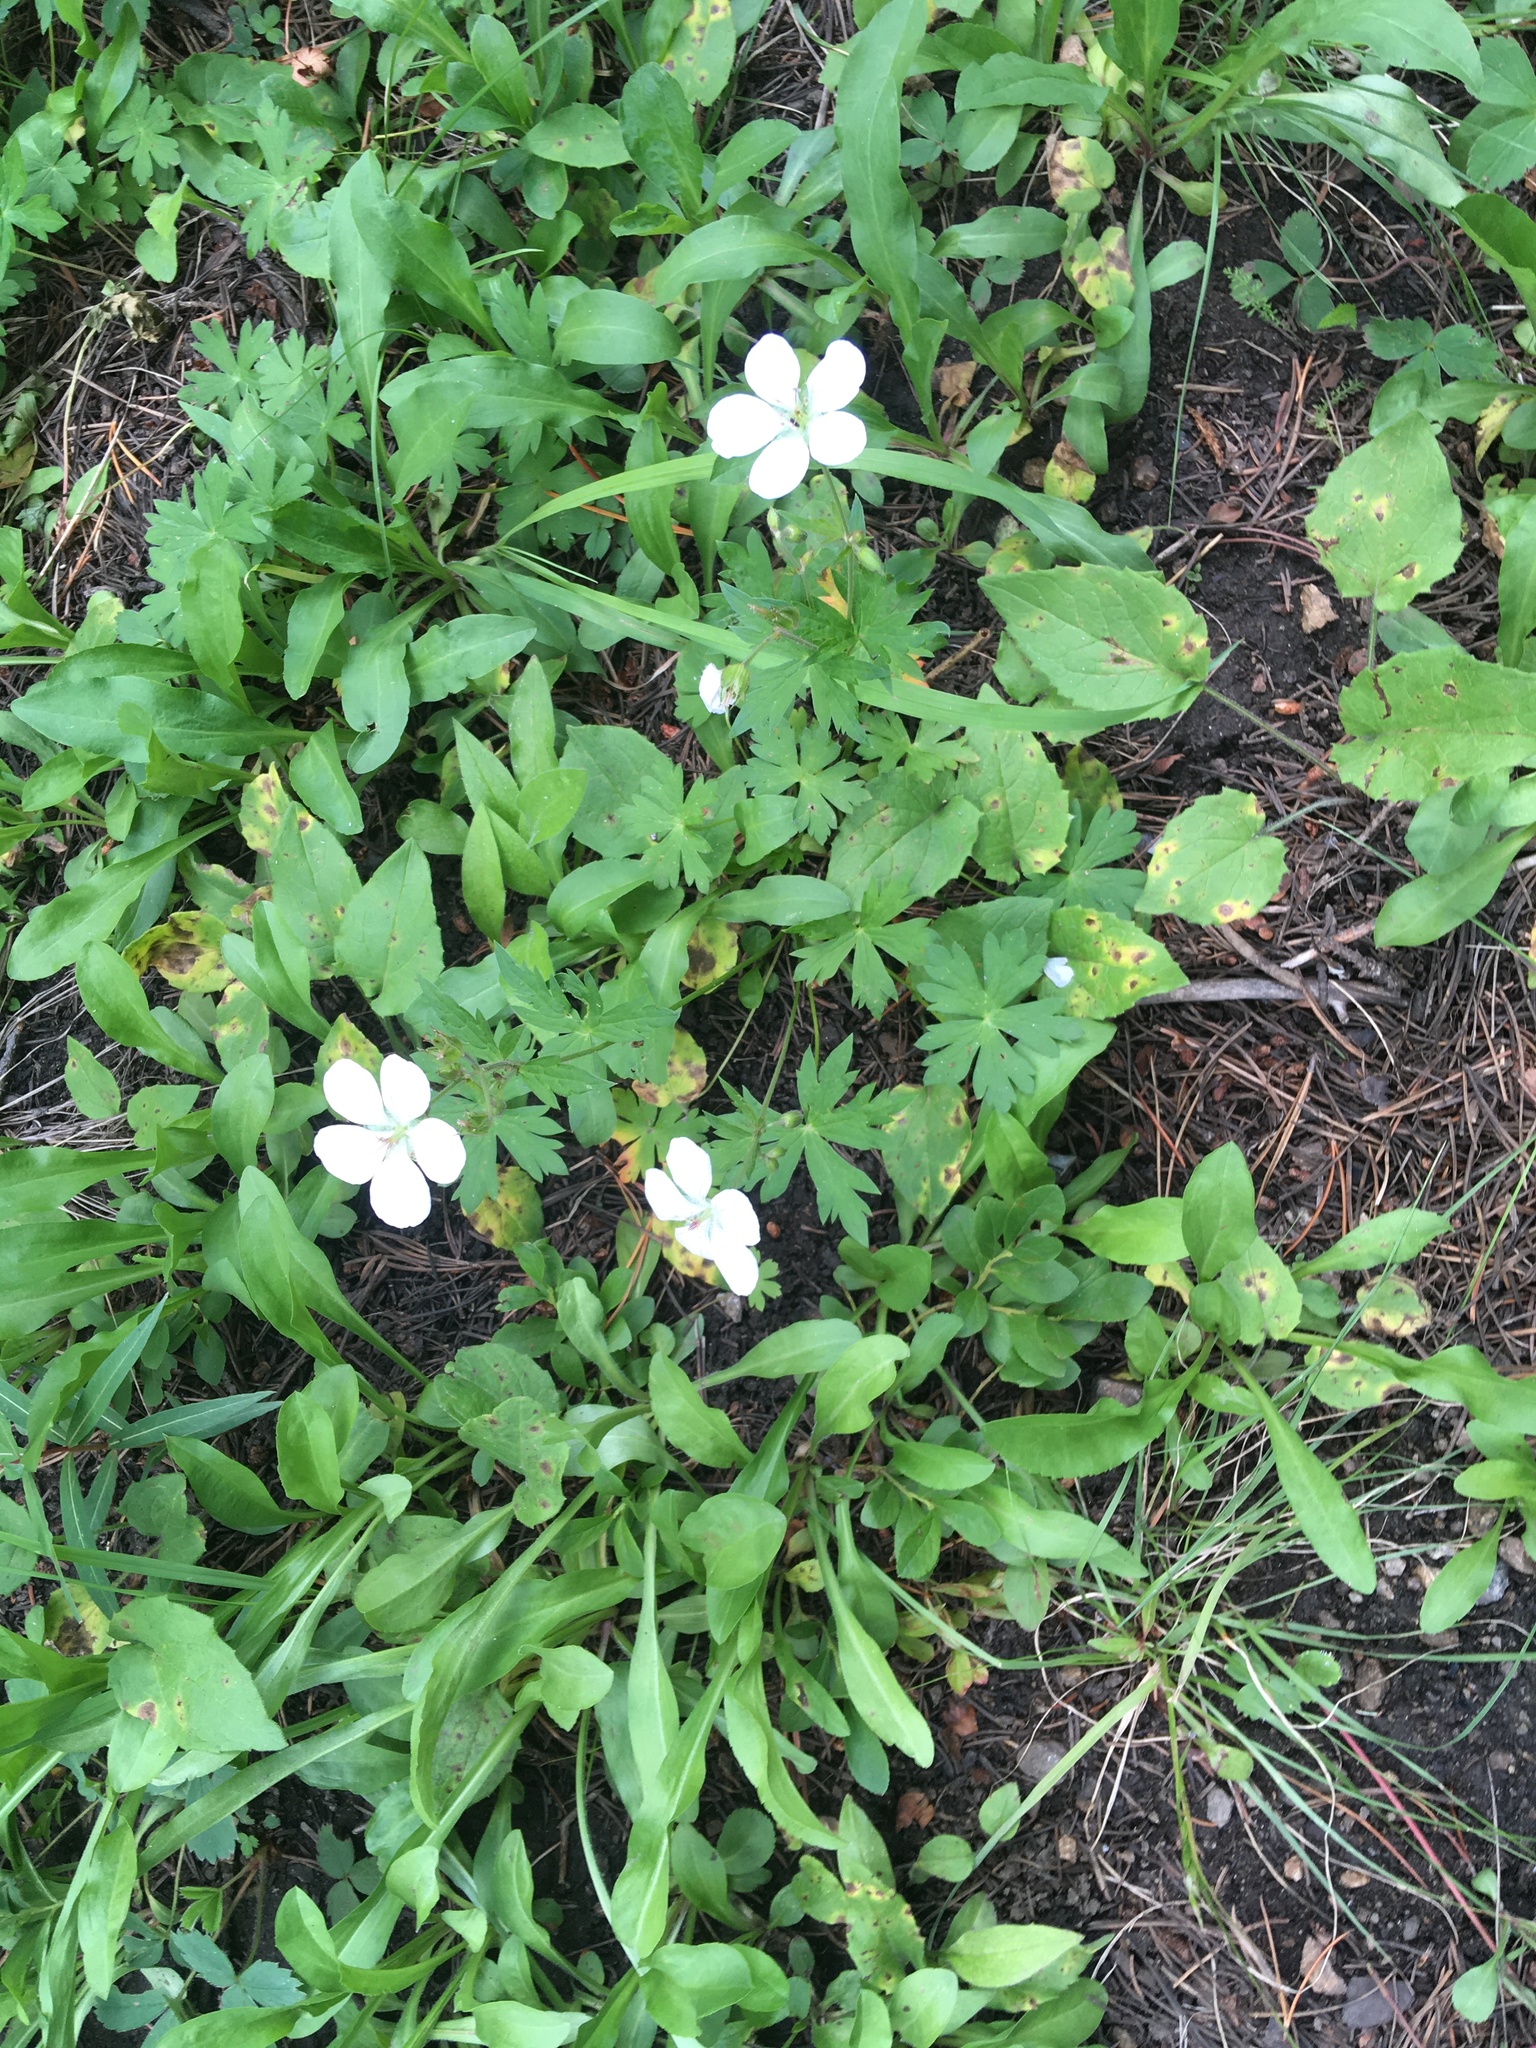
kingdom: Plantae
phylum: Tracheophyta
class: Magnoliopsida
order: Geraniales
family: Geraniaceae
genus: Geranium
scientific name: Geranium richardsonii
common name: Richardson's crane's-bill
